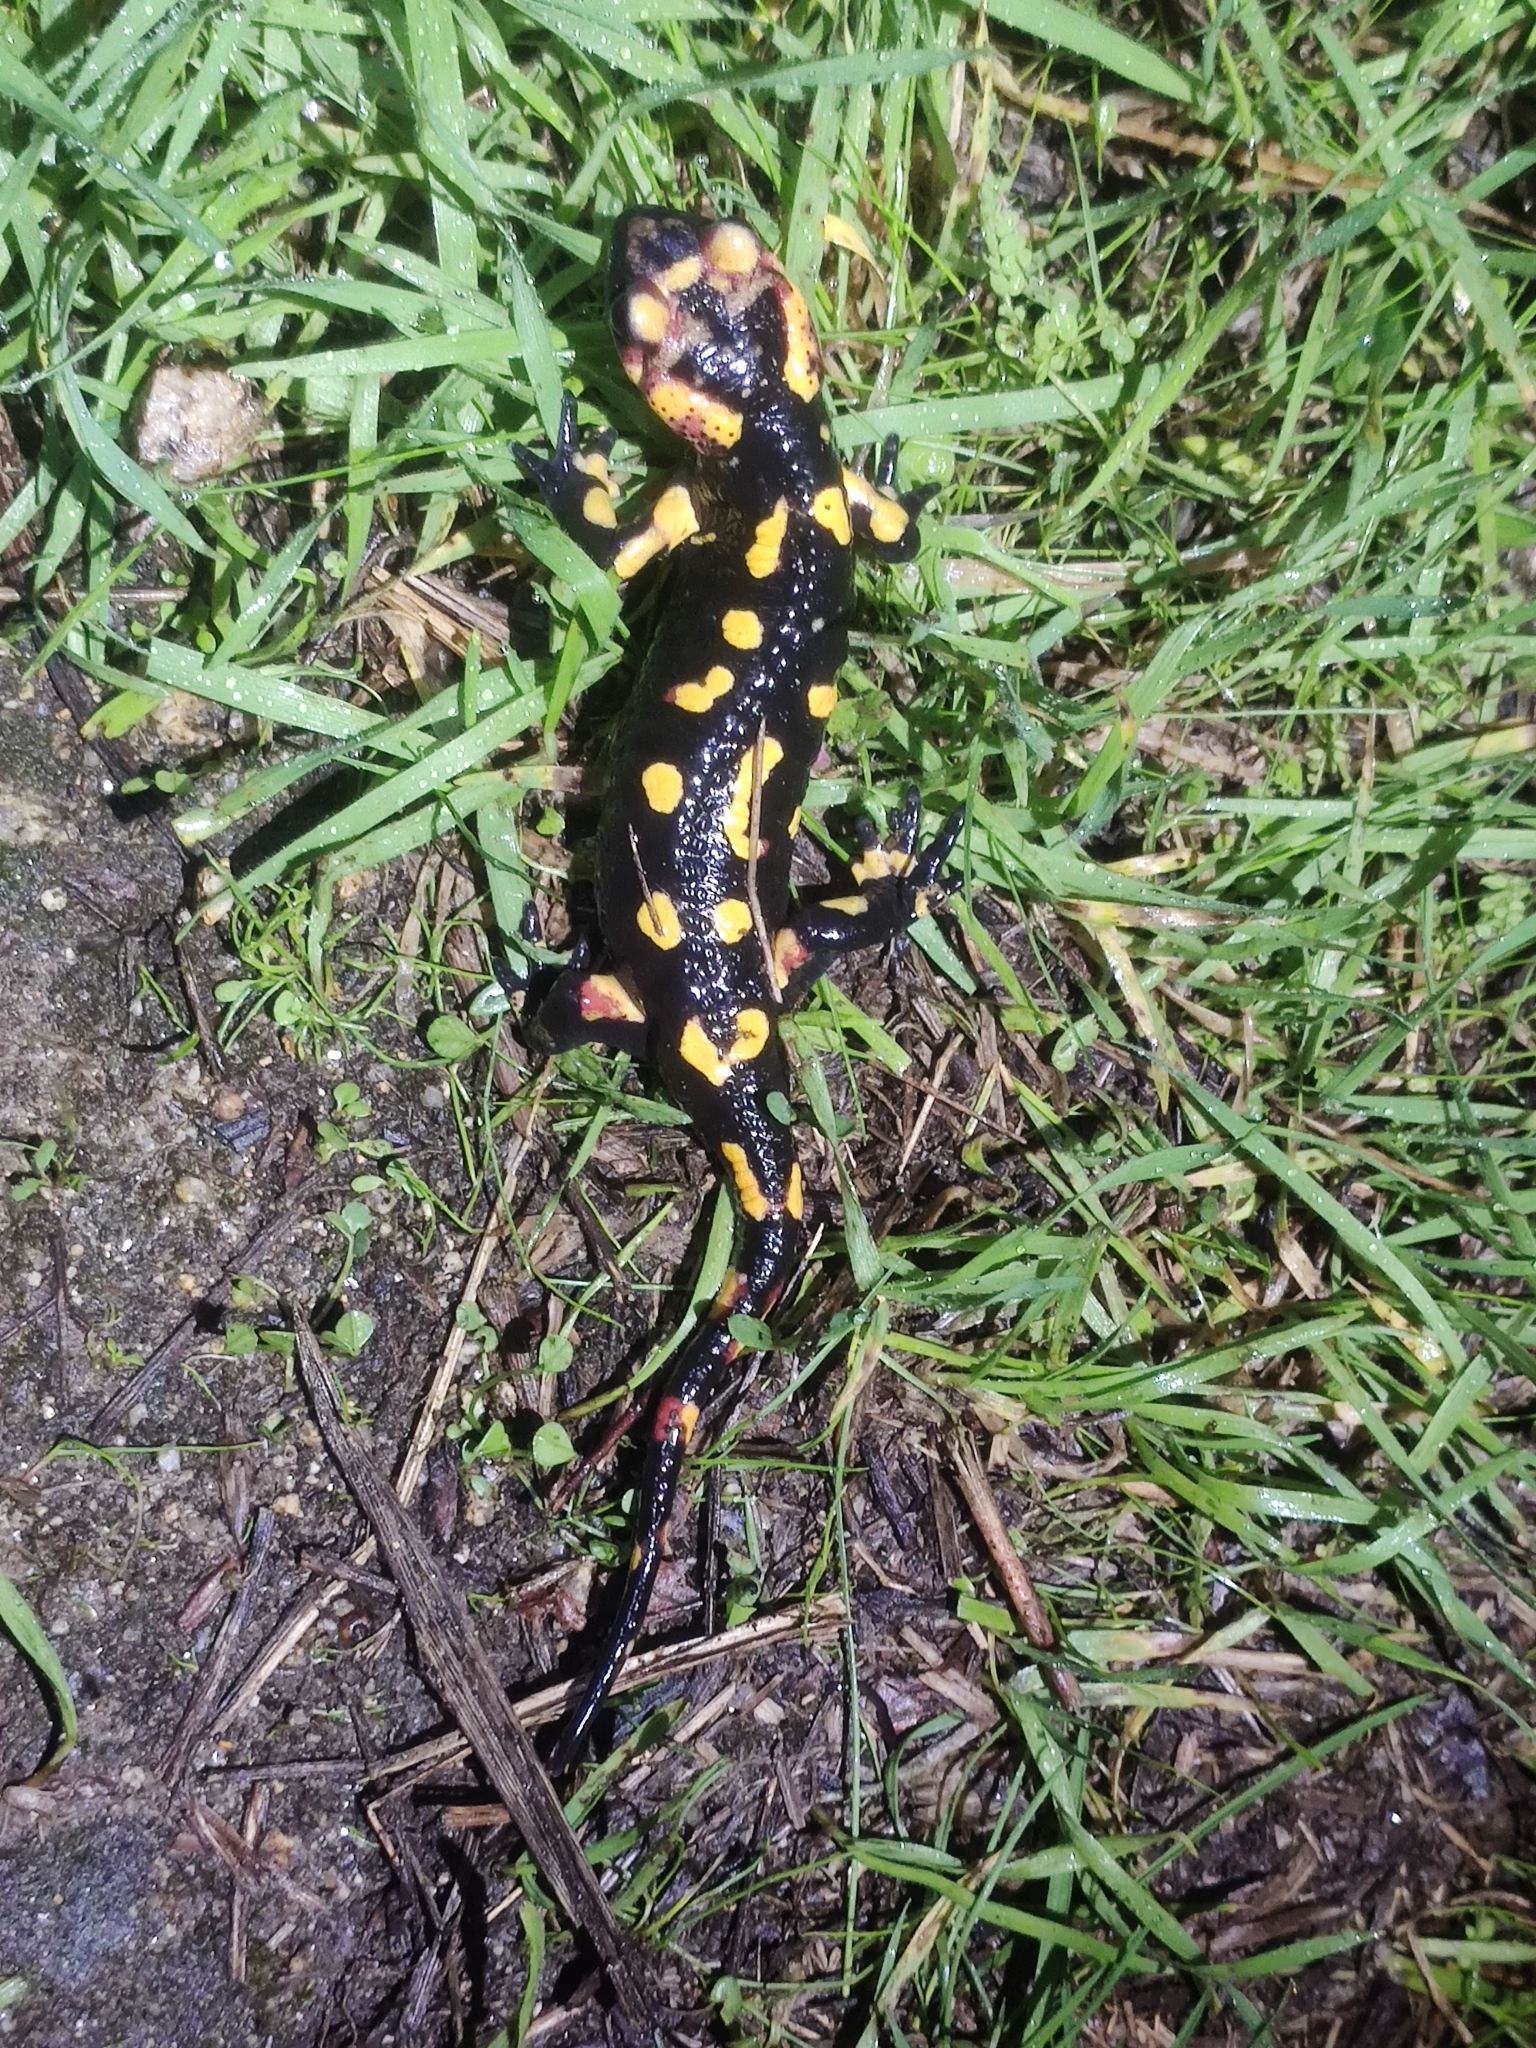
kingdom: Animalia
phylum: Chordata
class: Amphibia
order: Caudata
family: Salamandridae
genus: Salamandra
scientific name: Salamandra salamandra
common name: Fire salamander
